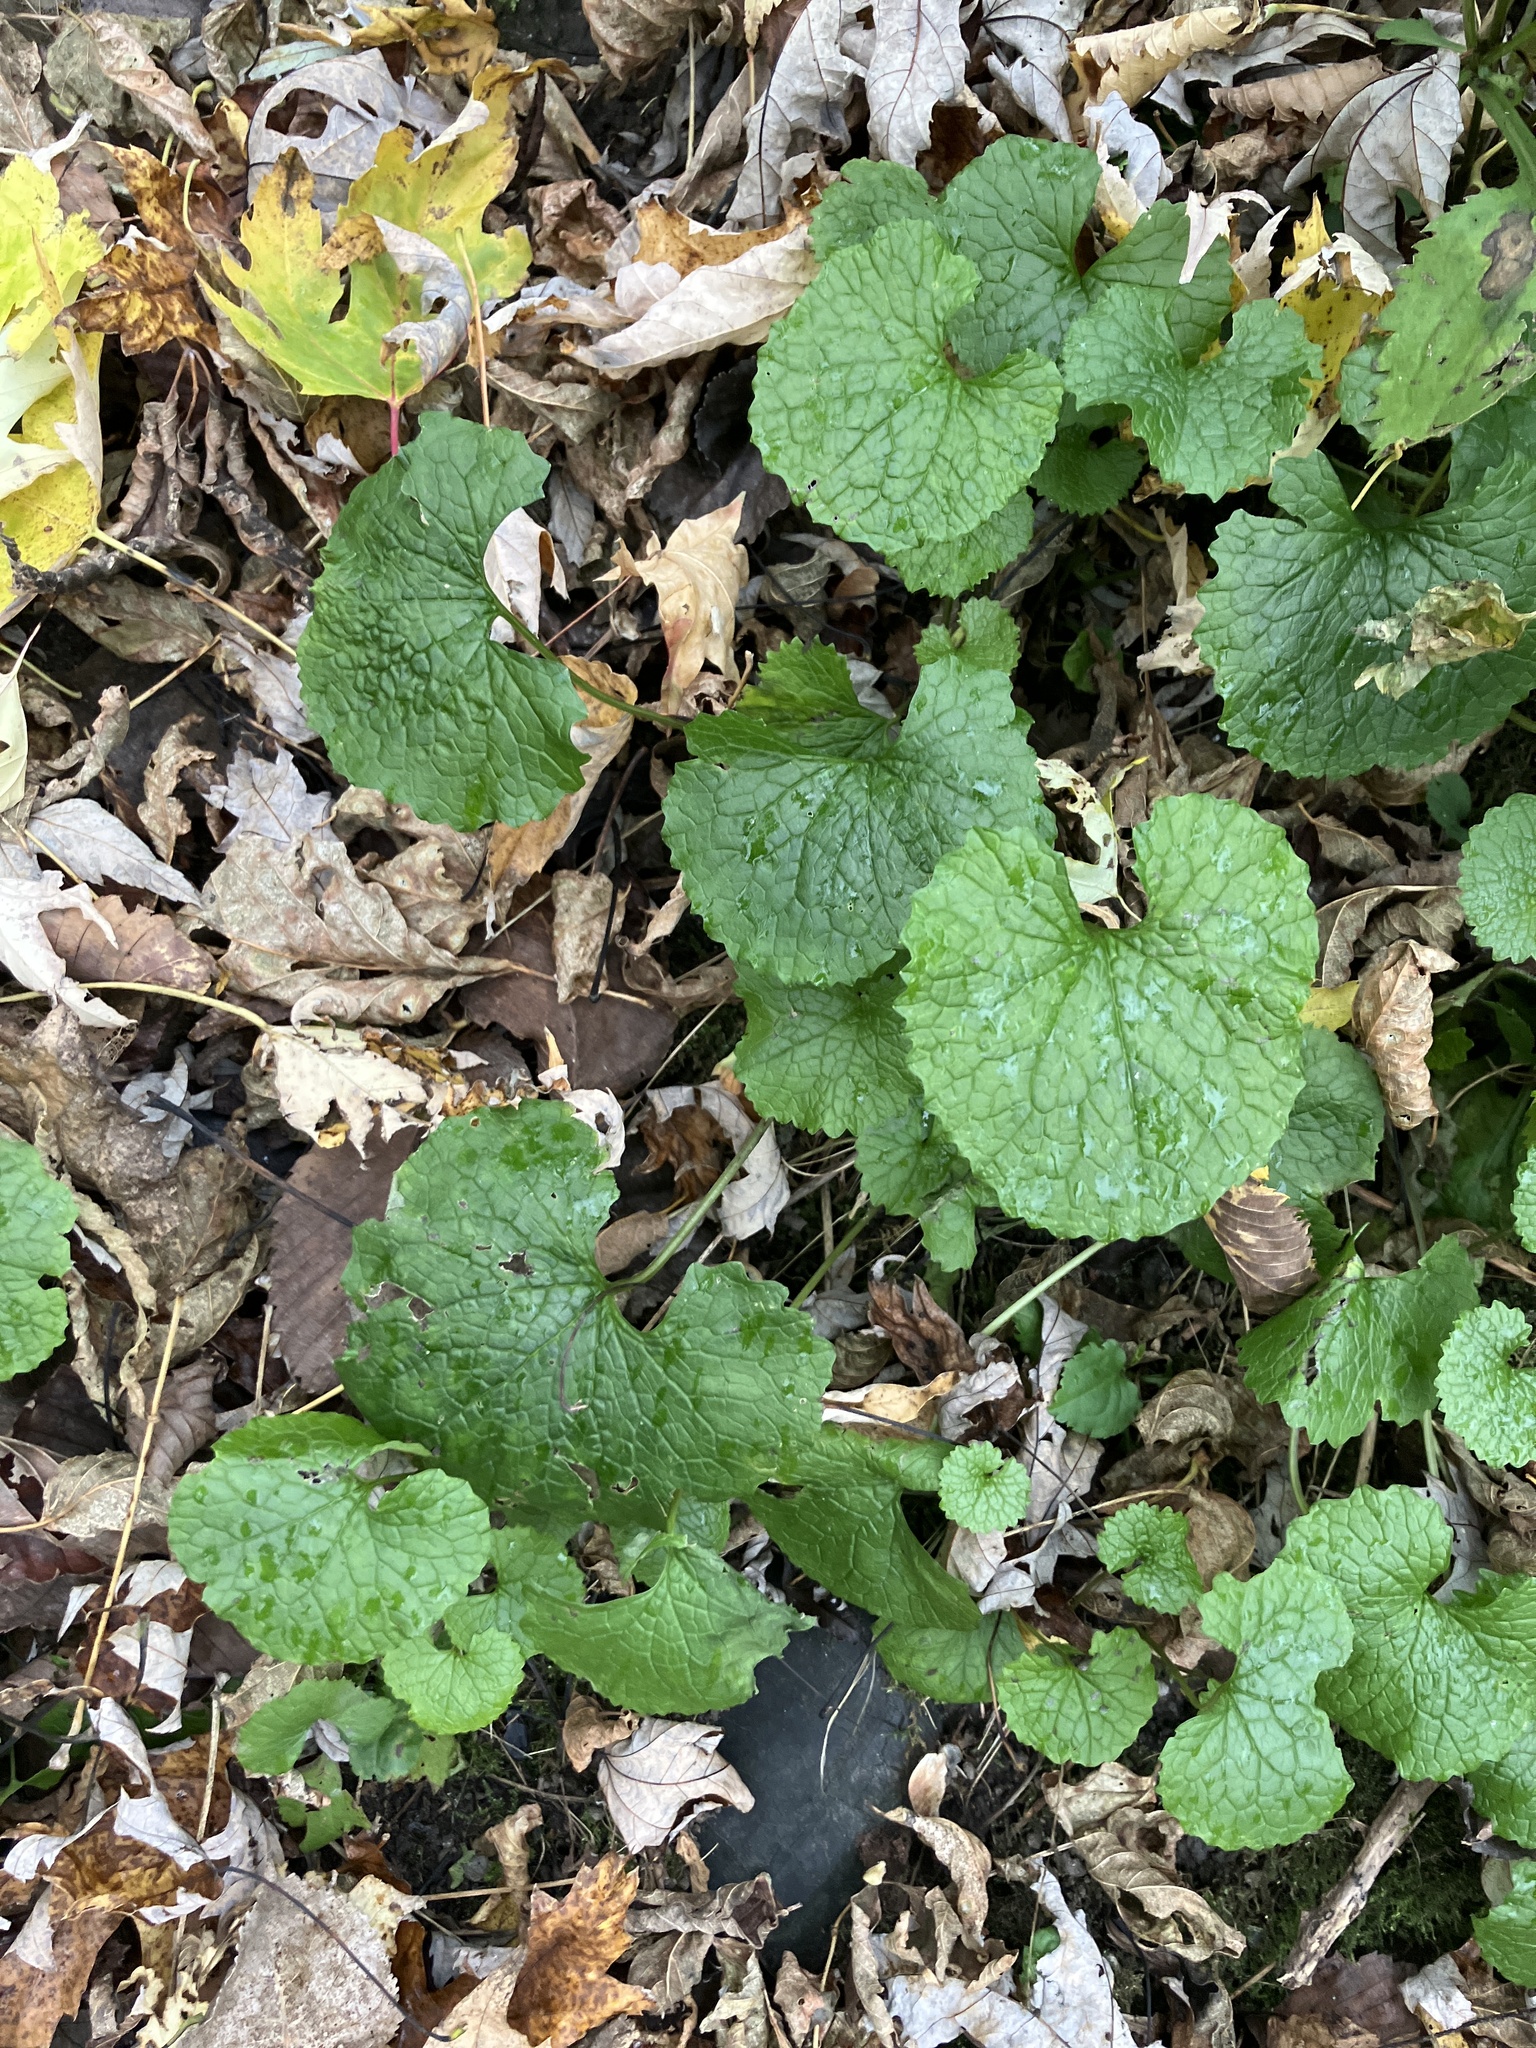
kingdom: Plantae
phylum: Tracheophyta
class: Magnoliopsida
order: Brassicales
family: Brassicaceae
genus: Alliaria
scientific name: Alliaria petiolata
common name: Garlic mustard
